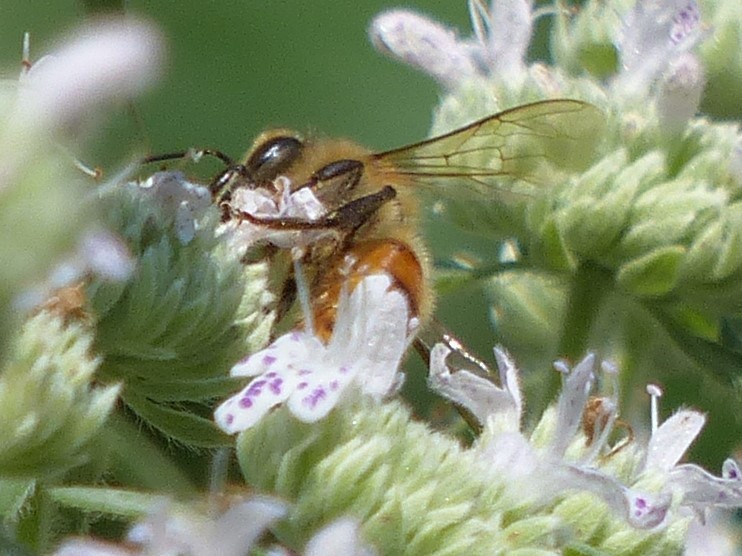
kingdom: Animalia
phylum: Arthropoda
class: Insecta
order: Hymenoptera
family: Apidae
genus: Apis
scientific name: Apis mellifera
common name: Honey bee
